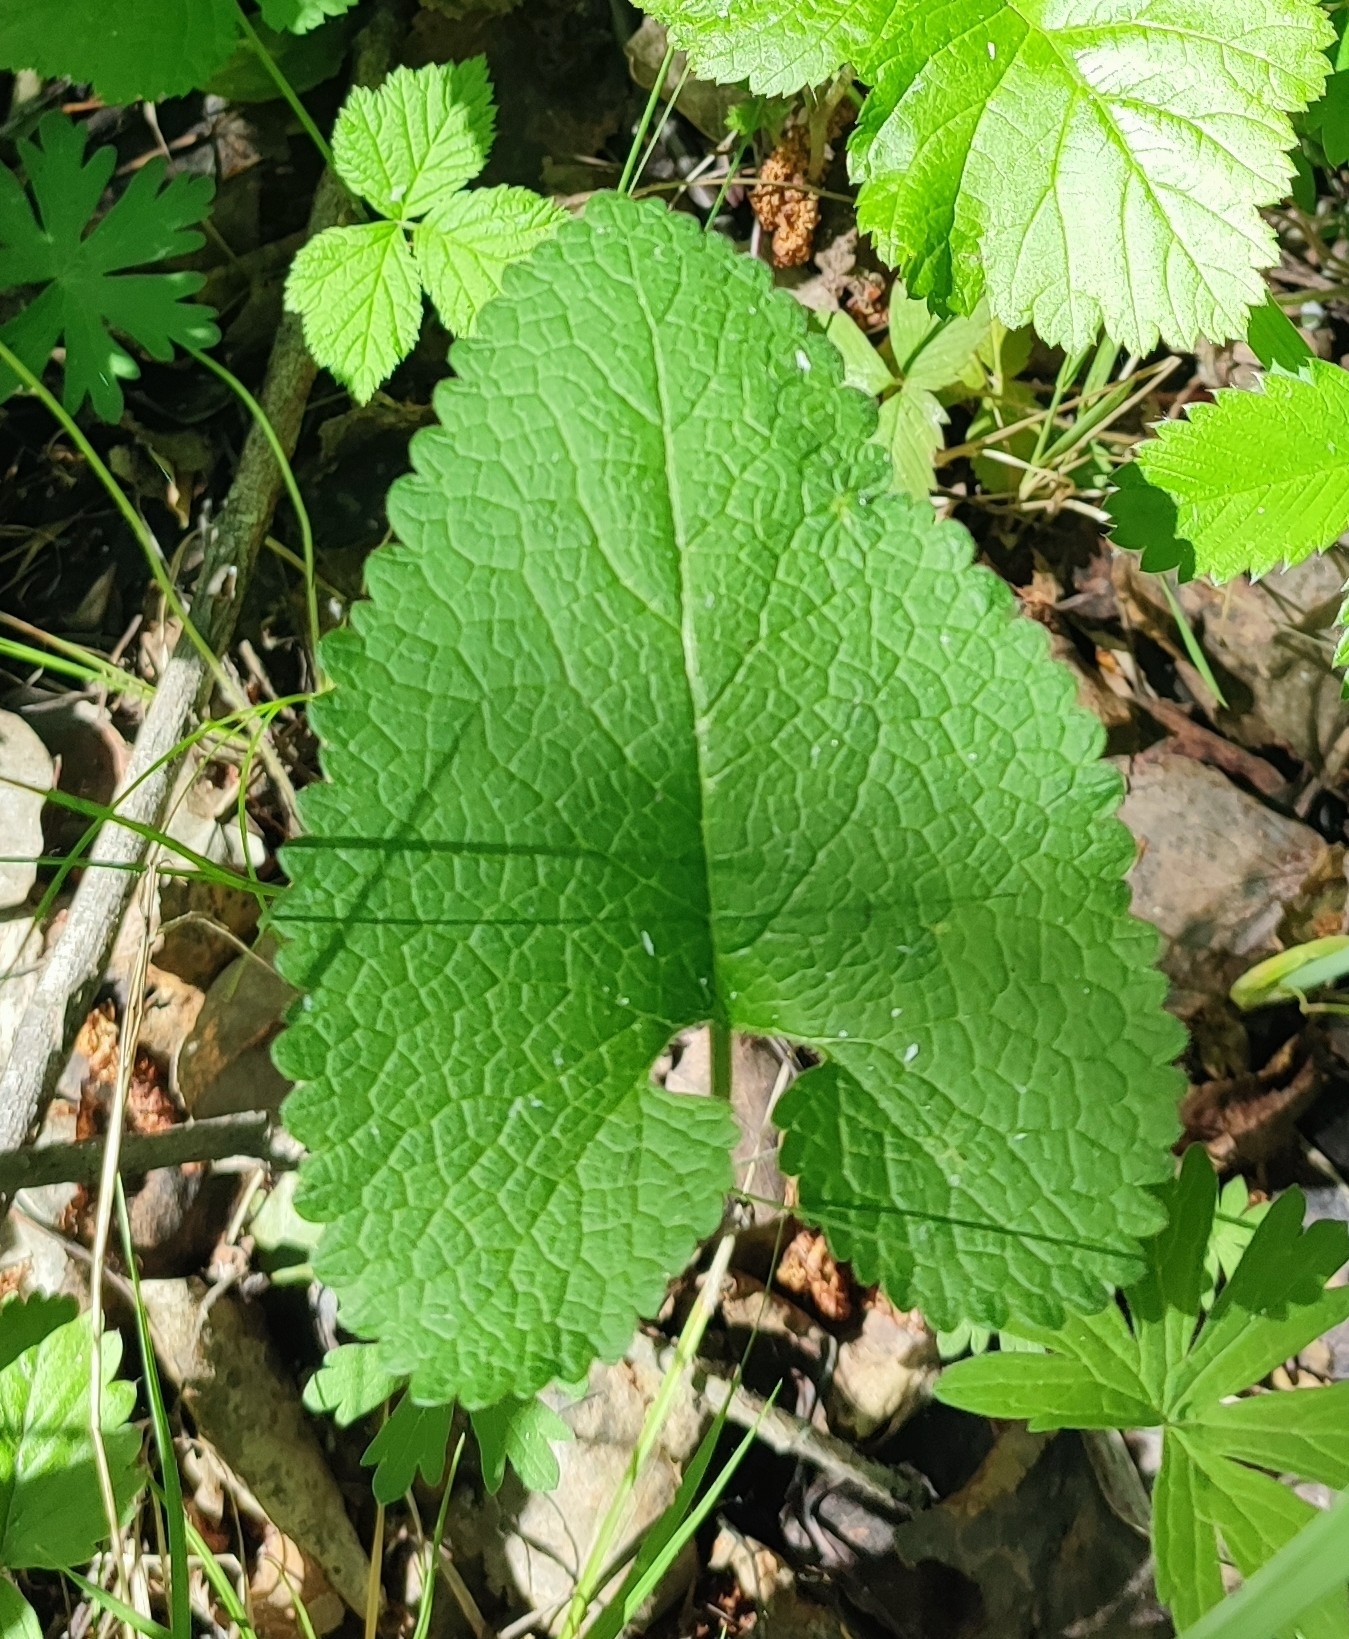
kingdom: Plantae
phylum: Tracheophyta
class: Magnoliopsida
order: Lamiales
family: Lamiaceae
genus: Phlomoides
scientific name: Phlomoides tuberosa
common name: Tuberous jerusalem sage
